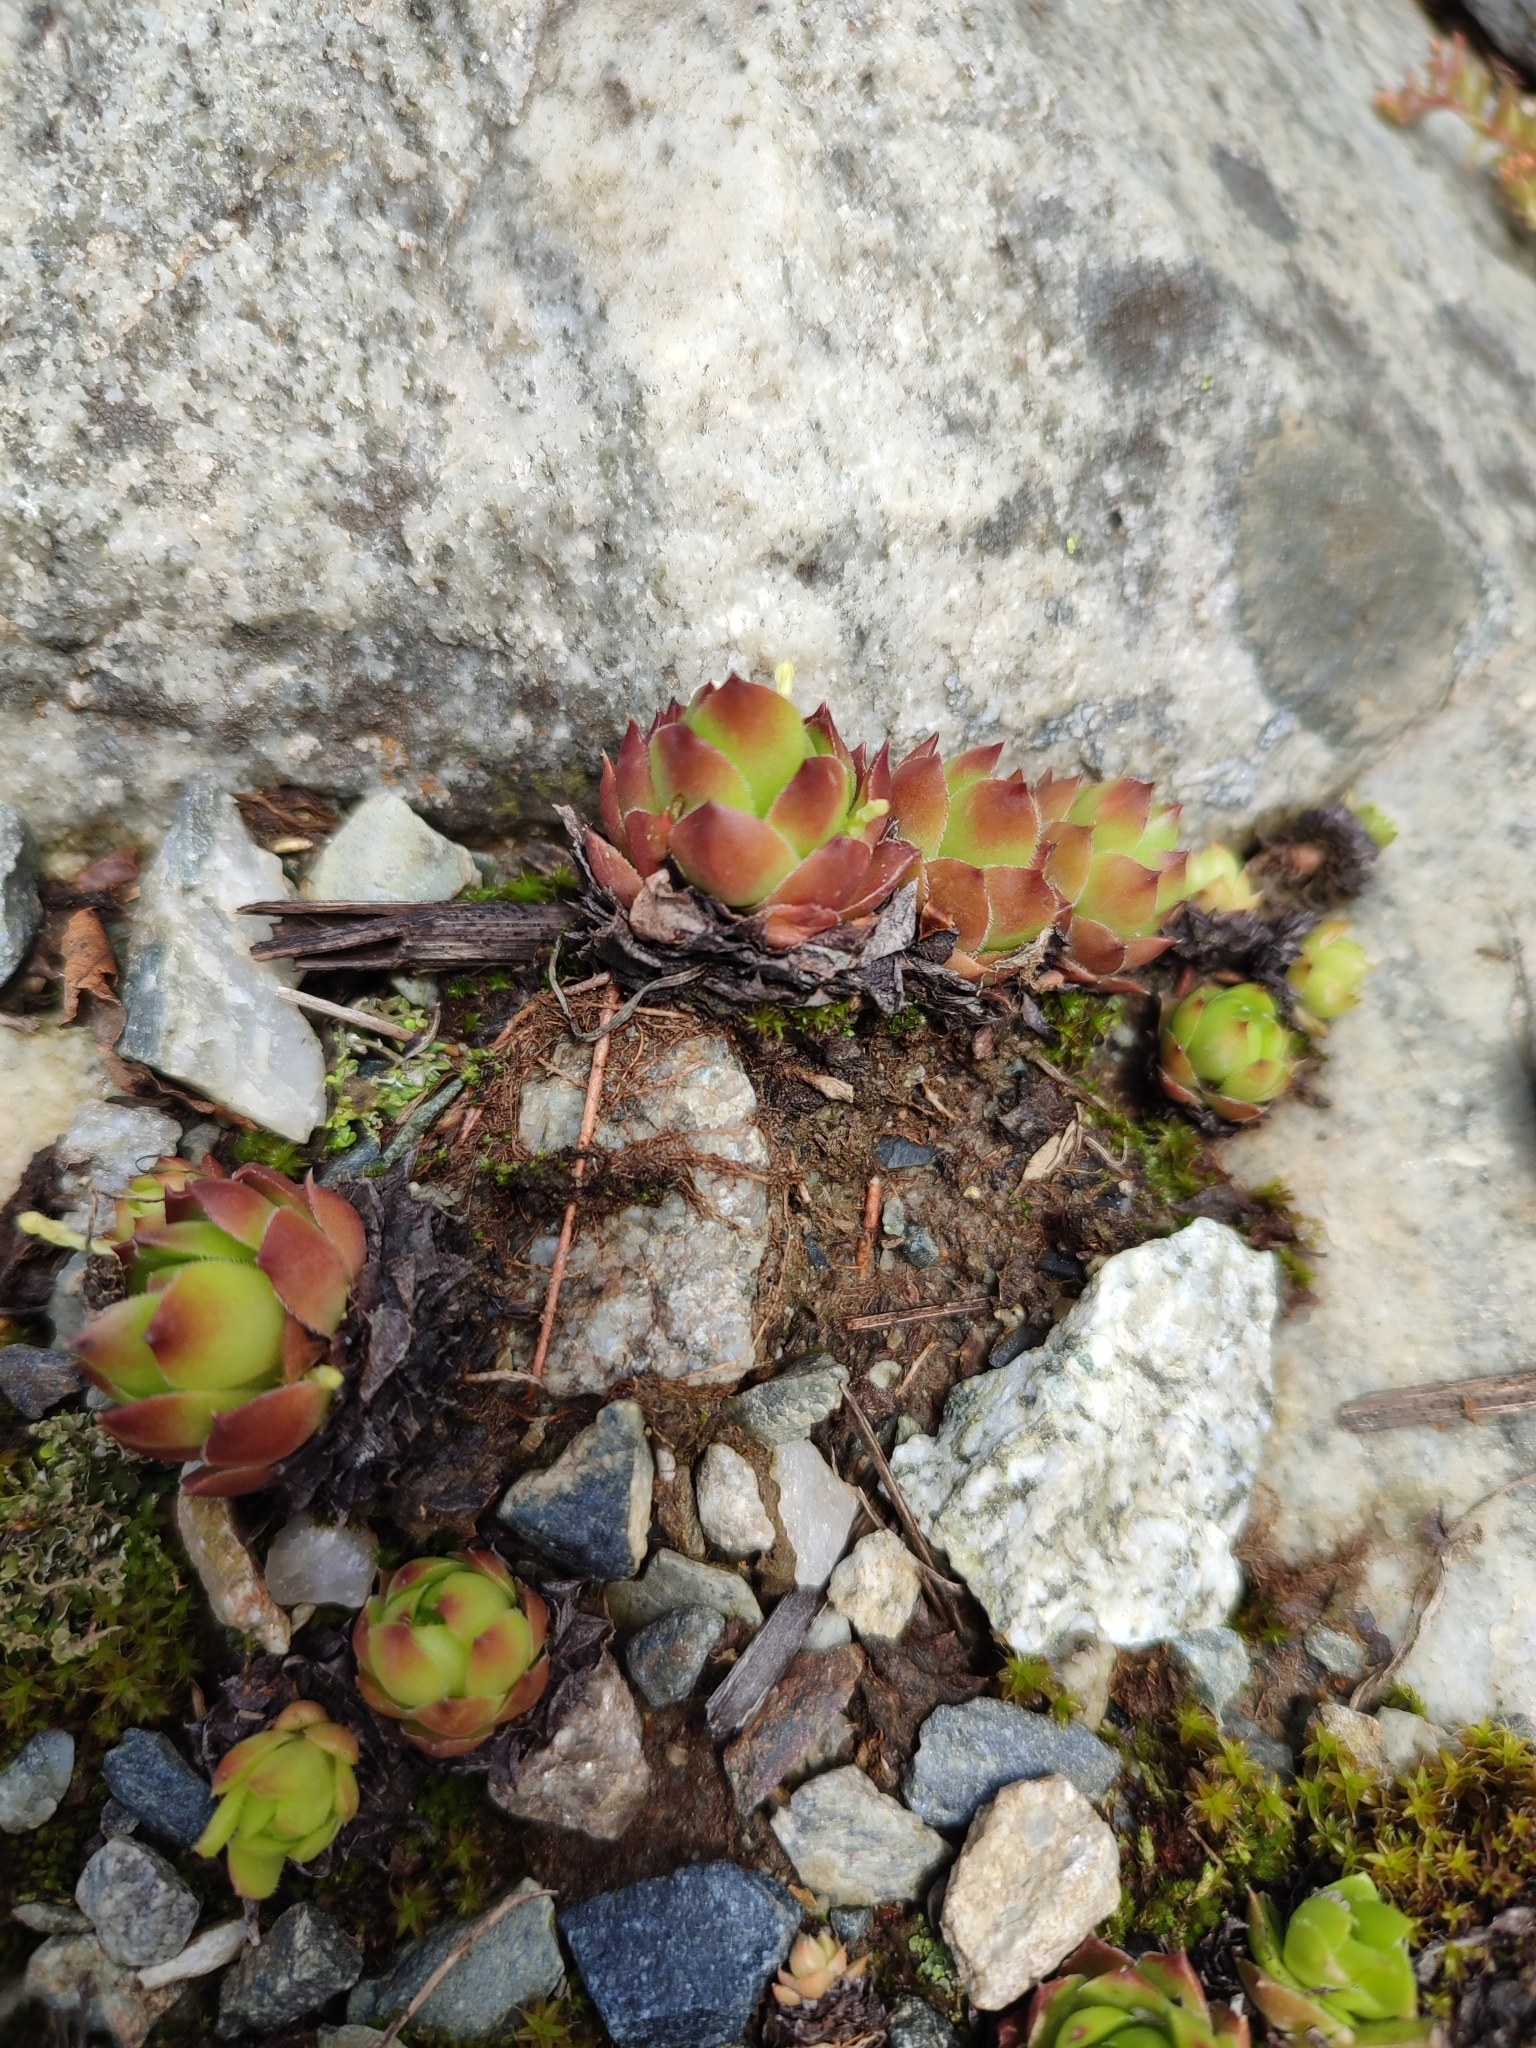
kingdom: Plantae
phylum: Tracheophyta
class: Magnoliopsida
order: Saxifragales
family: Crassulaceae
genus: Sempervivum
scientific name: Sempervivum caucasicum
